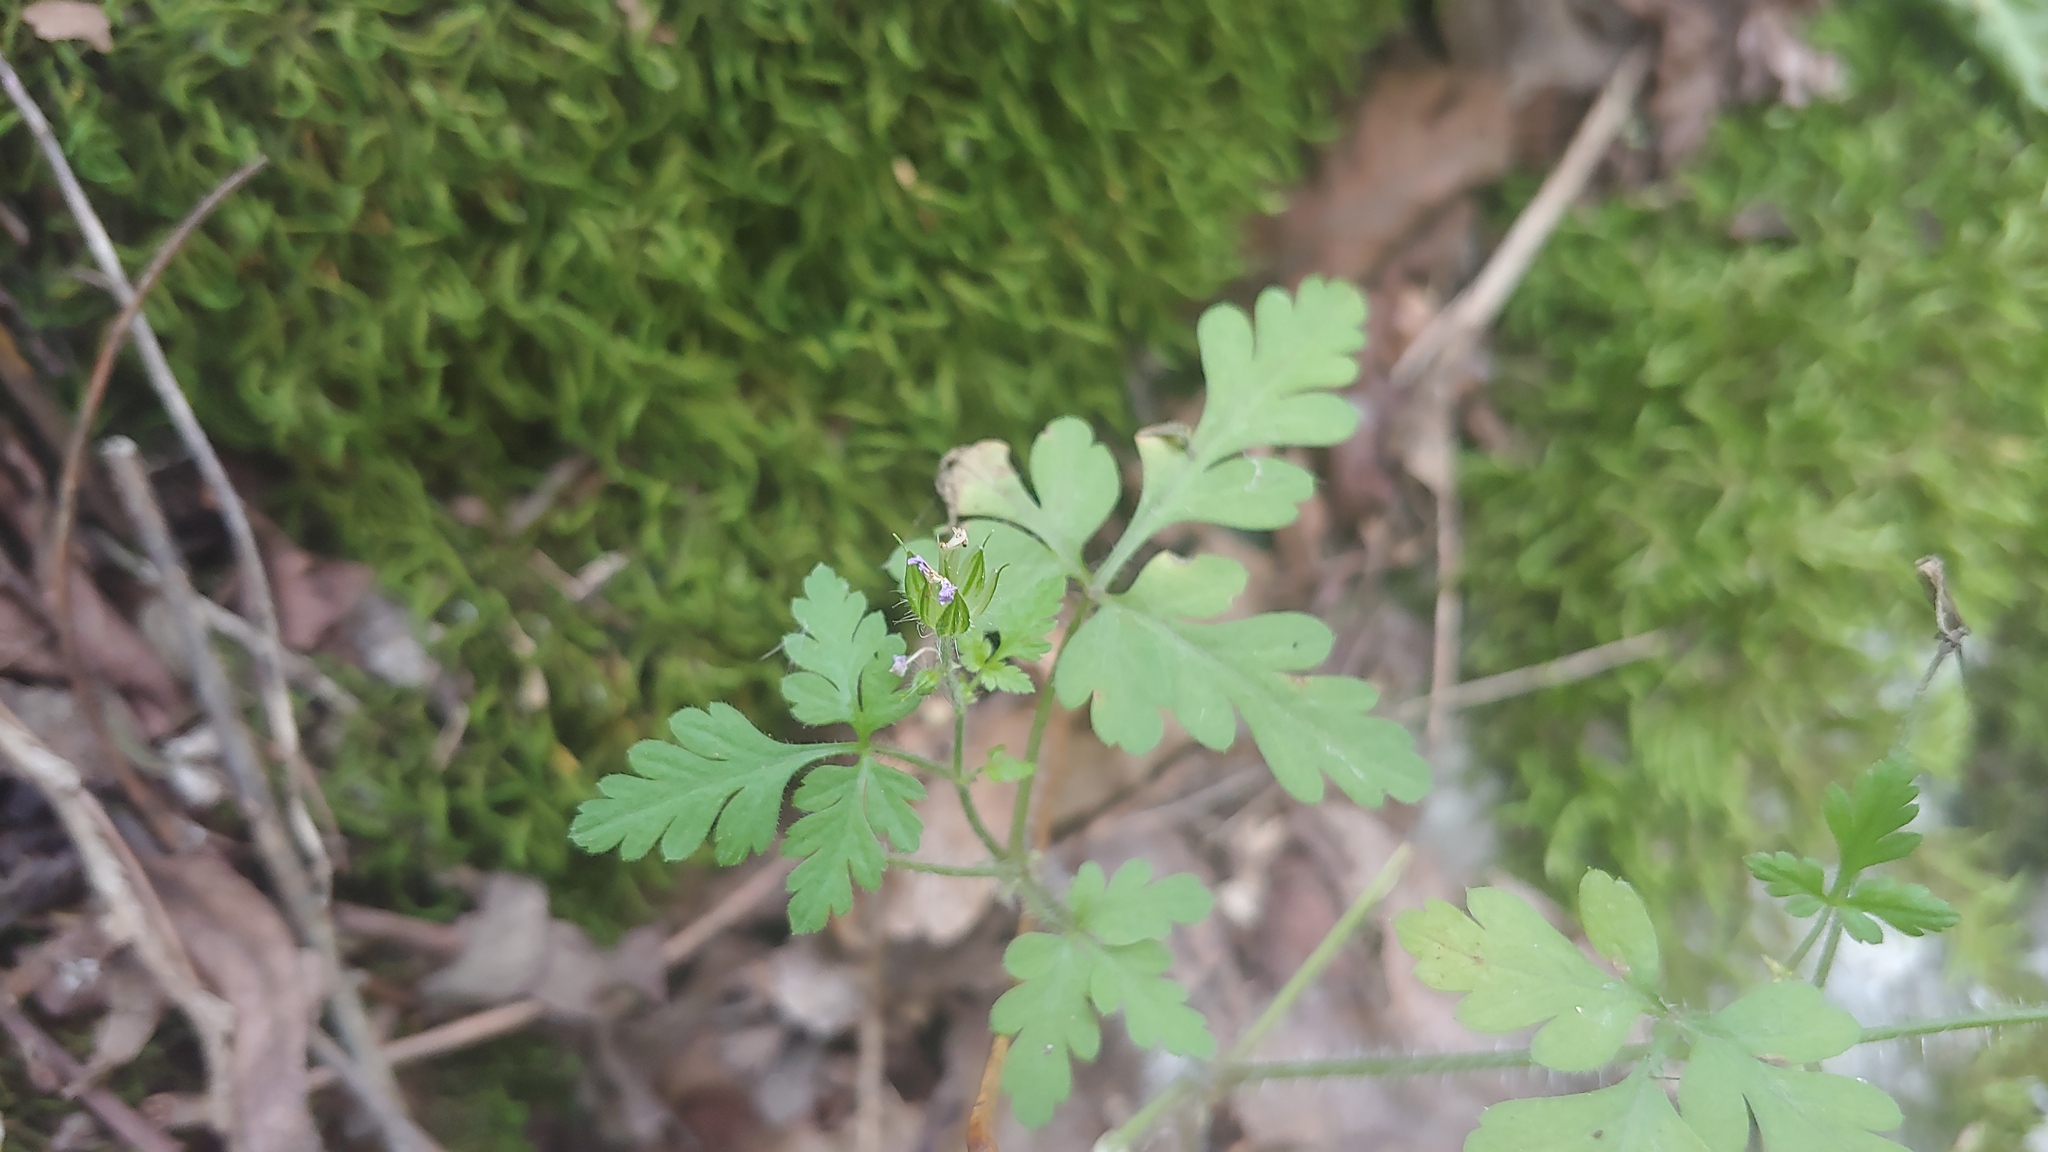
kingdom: Plantae
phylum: Tracheophyta
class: Magnoliopsida
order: Geraniales
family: Geraniaceae
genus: Geranium
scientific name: Geranium robertianum
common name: Herb-robert
